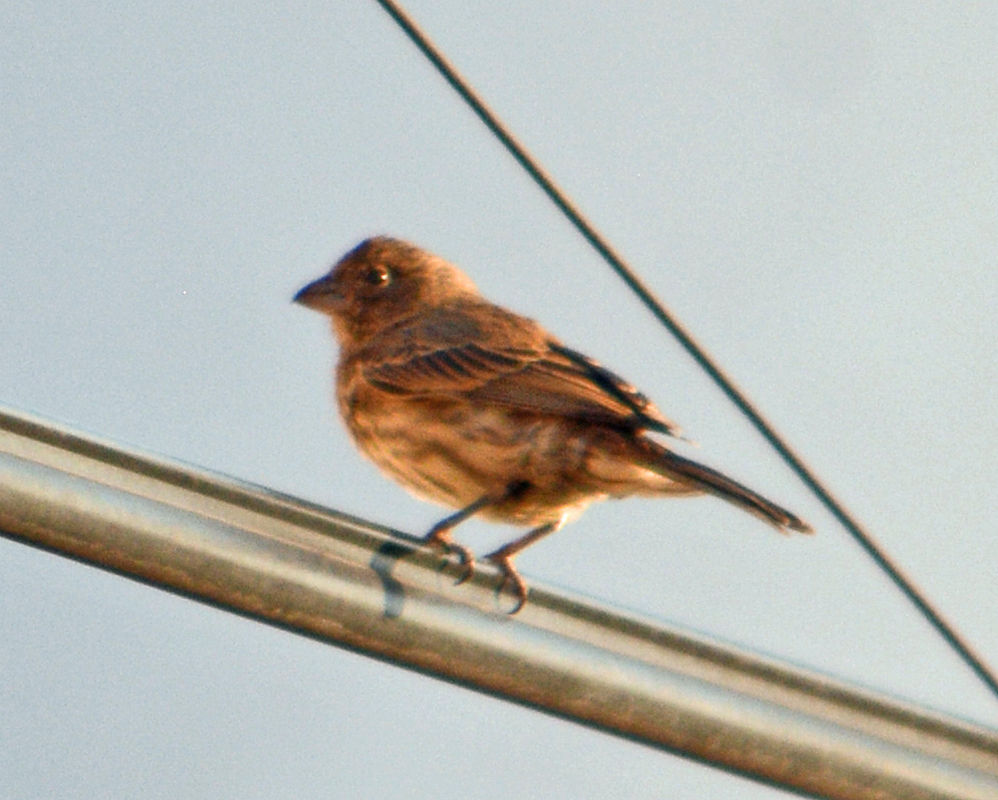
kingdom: Animalia
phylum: Chordata
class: Aves
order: Passeriformes
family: Fringillidae
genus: Haemorhous
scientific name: Haemorhous mexicanus
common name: House finch
